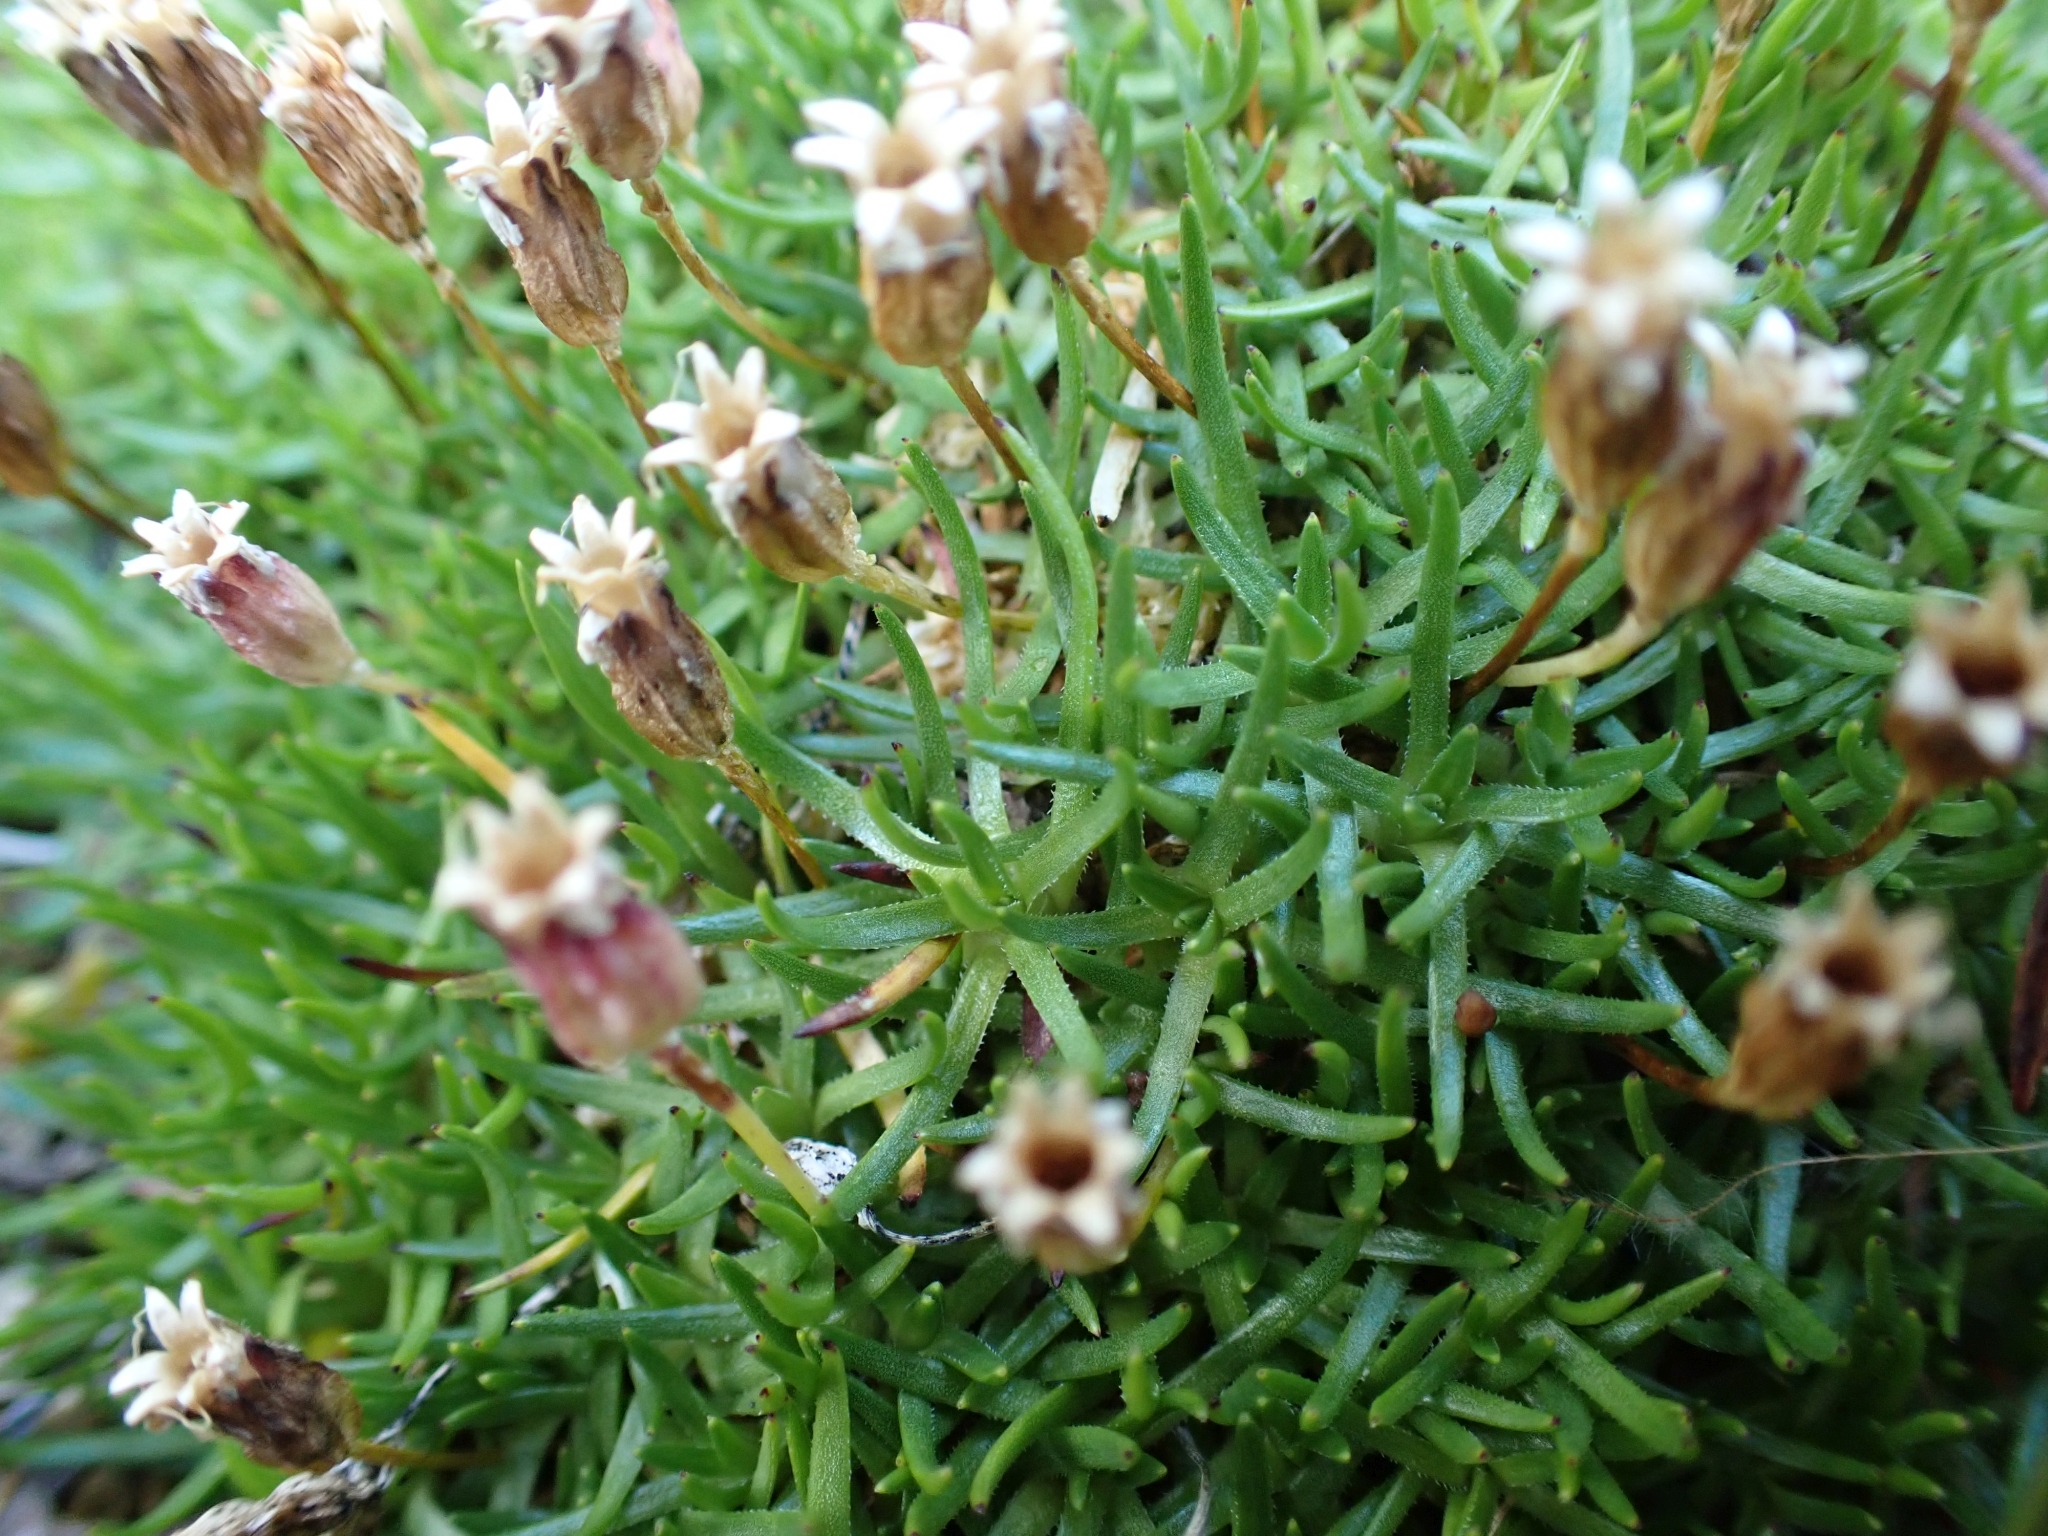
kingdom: Plantae
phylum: Tracheophyta
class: Magnoliopsida
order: Caryophyllales
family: Caryophyllaceae
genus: Silene
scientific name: Silene acaulis
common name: Moss campion
